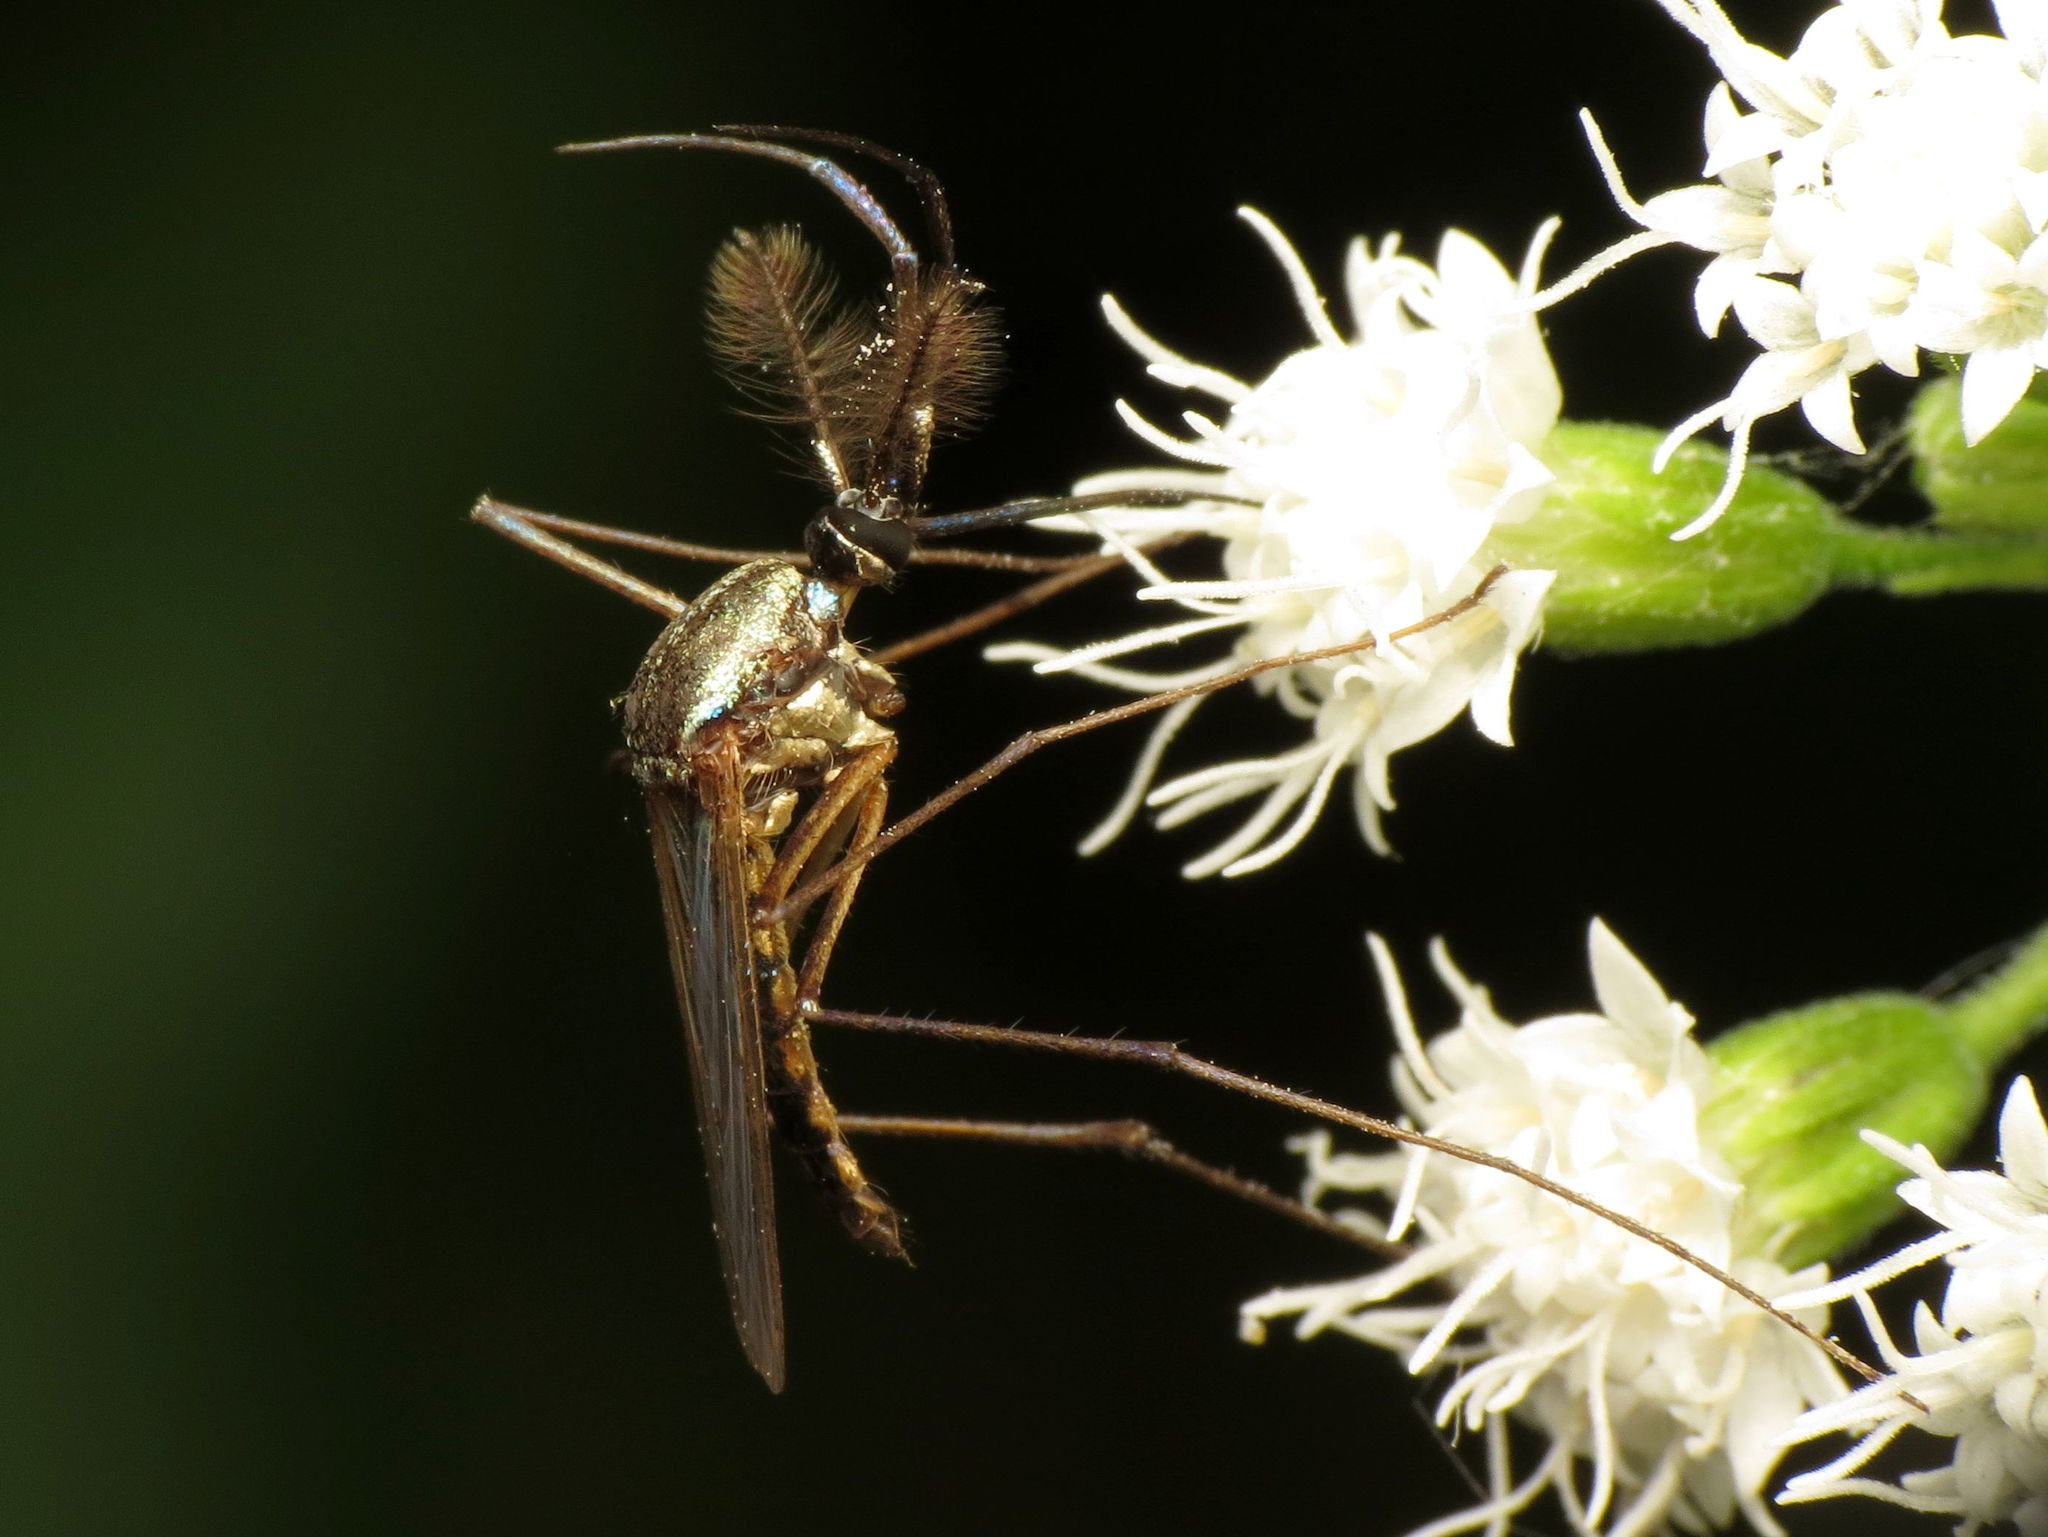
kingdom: Animalia
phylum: Arthropoda
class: Insecta
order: Diptera
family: Culicidae
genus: Toxorhynchites
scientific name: Toxorhynchites rutilus
